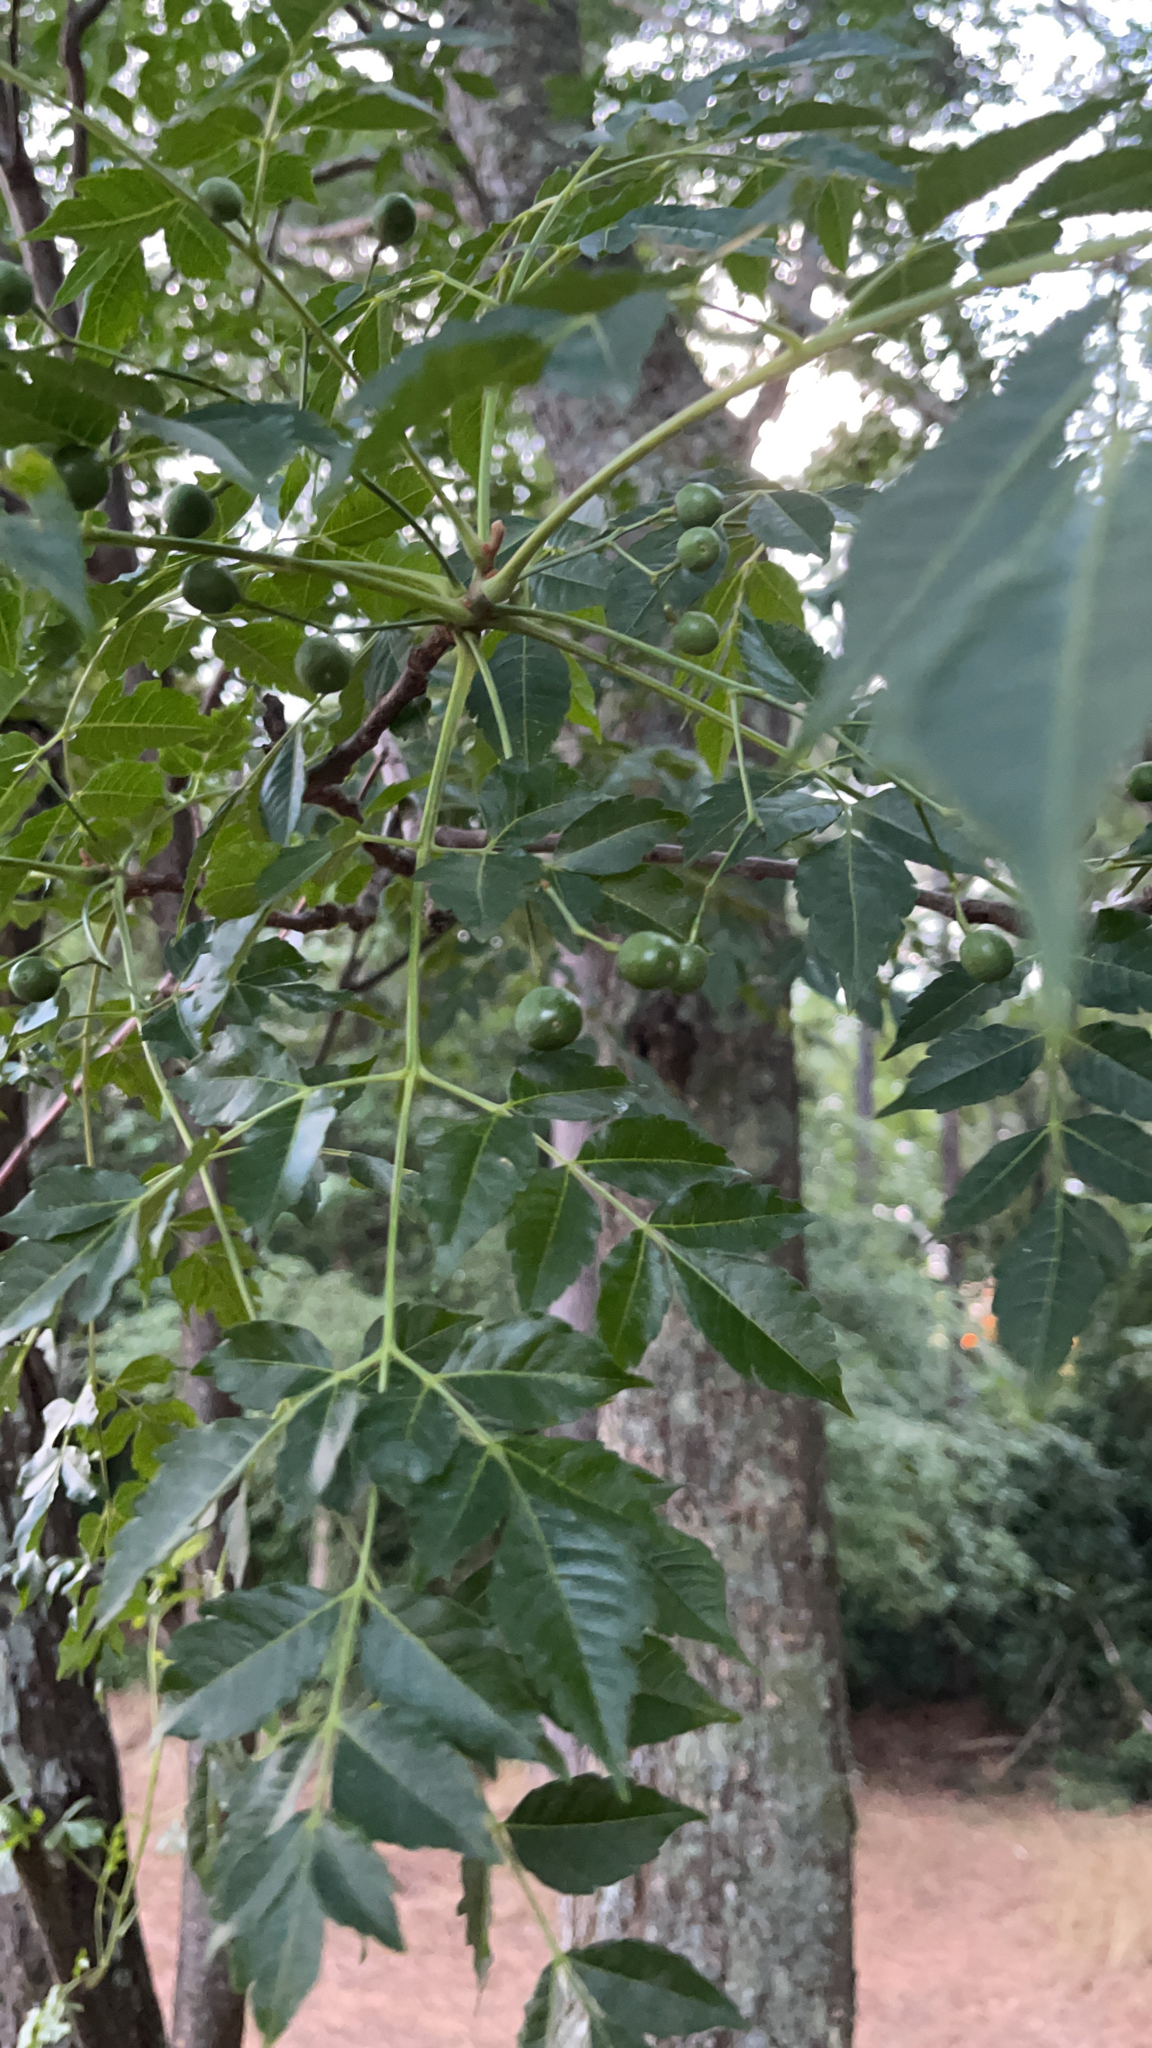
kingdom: Plantae
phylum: Tracheophyta
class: Magnoliopsida
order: Sapindales
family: Meliaceae
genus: Melia
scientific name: Melia azedarach
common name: Chinaberrytree
